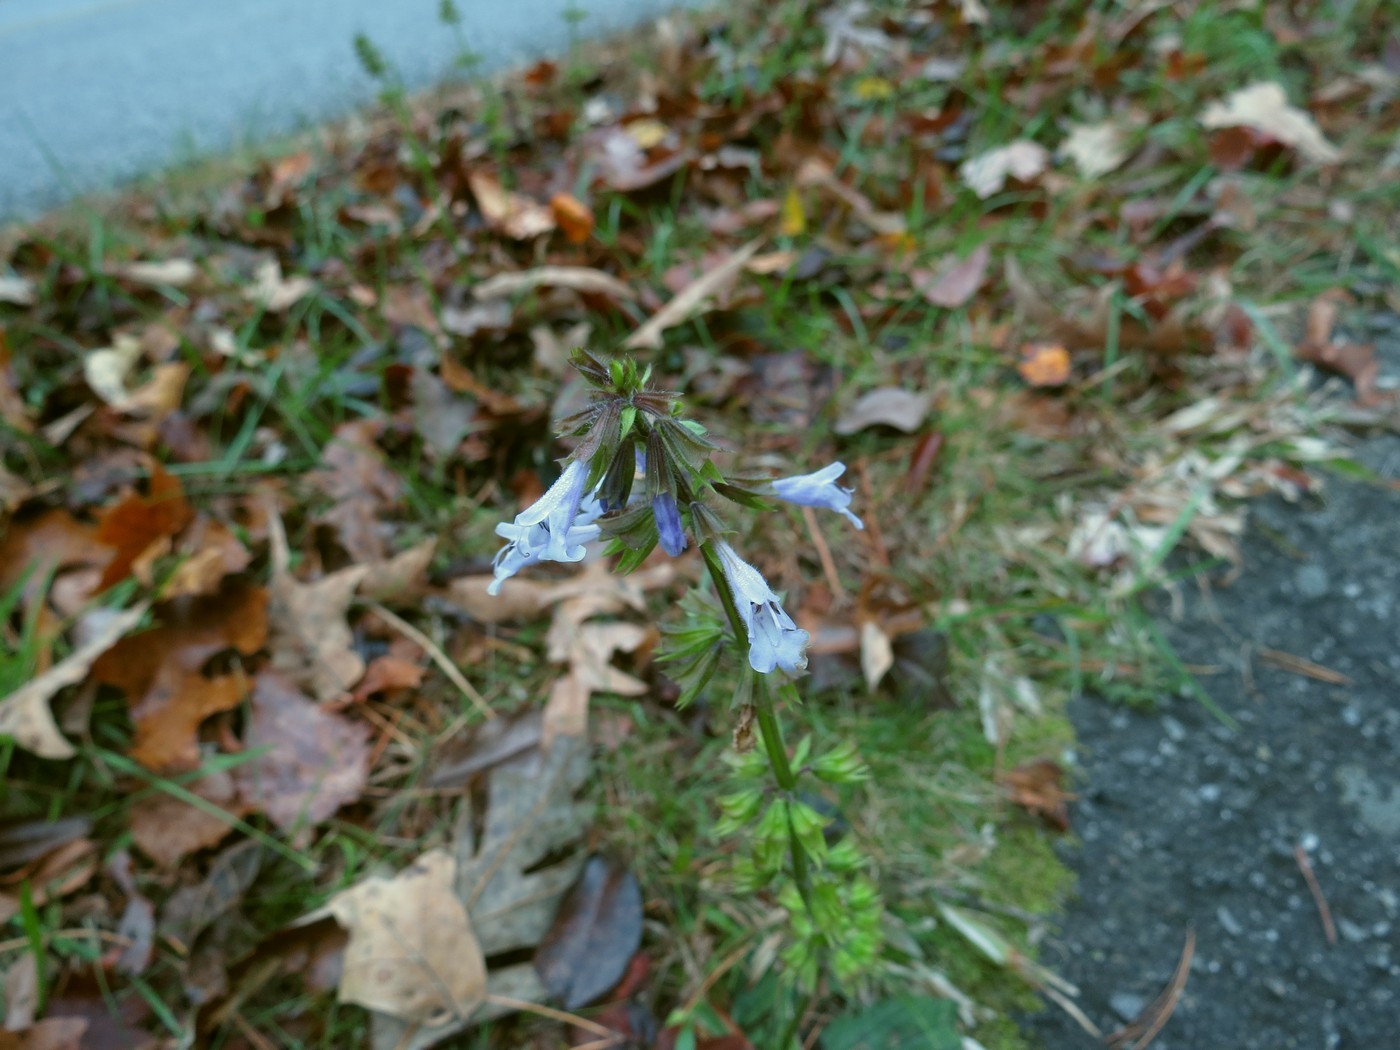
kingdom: Plantae
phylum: Tracheophyta
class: Magnoliopsida
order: Lamiales
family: Lamiaceae
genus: Salvia
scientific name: Salvia lyrata
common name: Cancerweed
